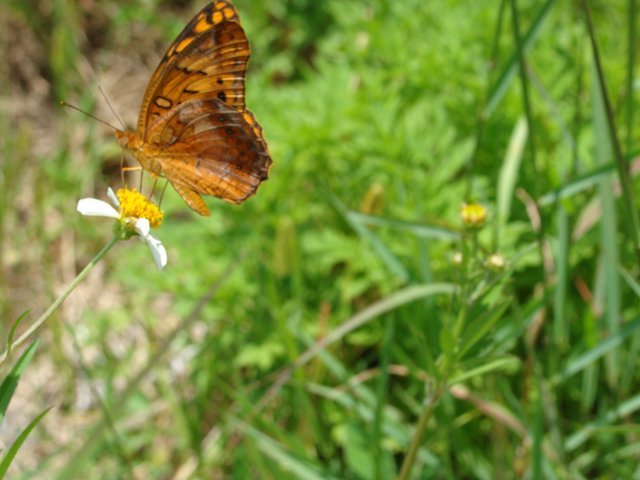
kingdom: Animalia
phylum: Arthropoda
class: Insecta
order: Lepidoptera
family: Nymphalidae
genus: Euptoieta
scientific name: Euptoieta hegesia
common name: Mexican fritillary
